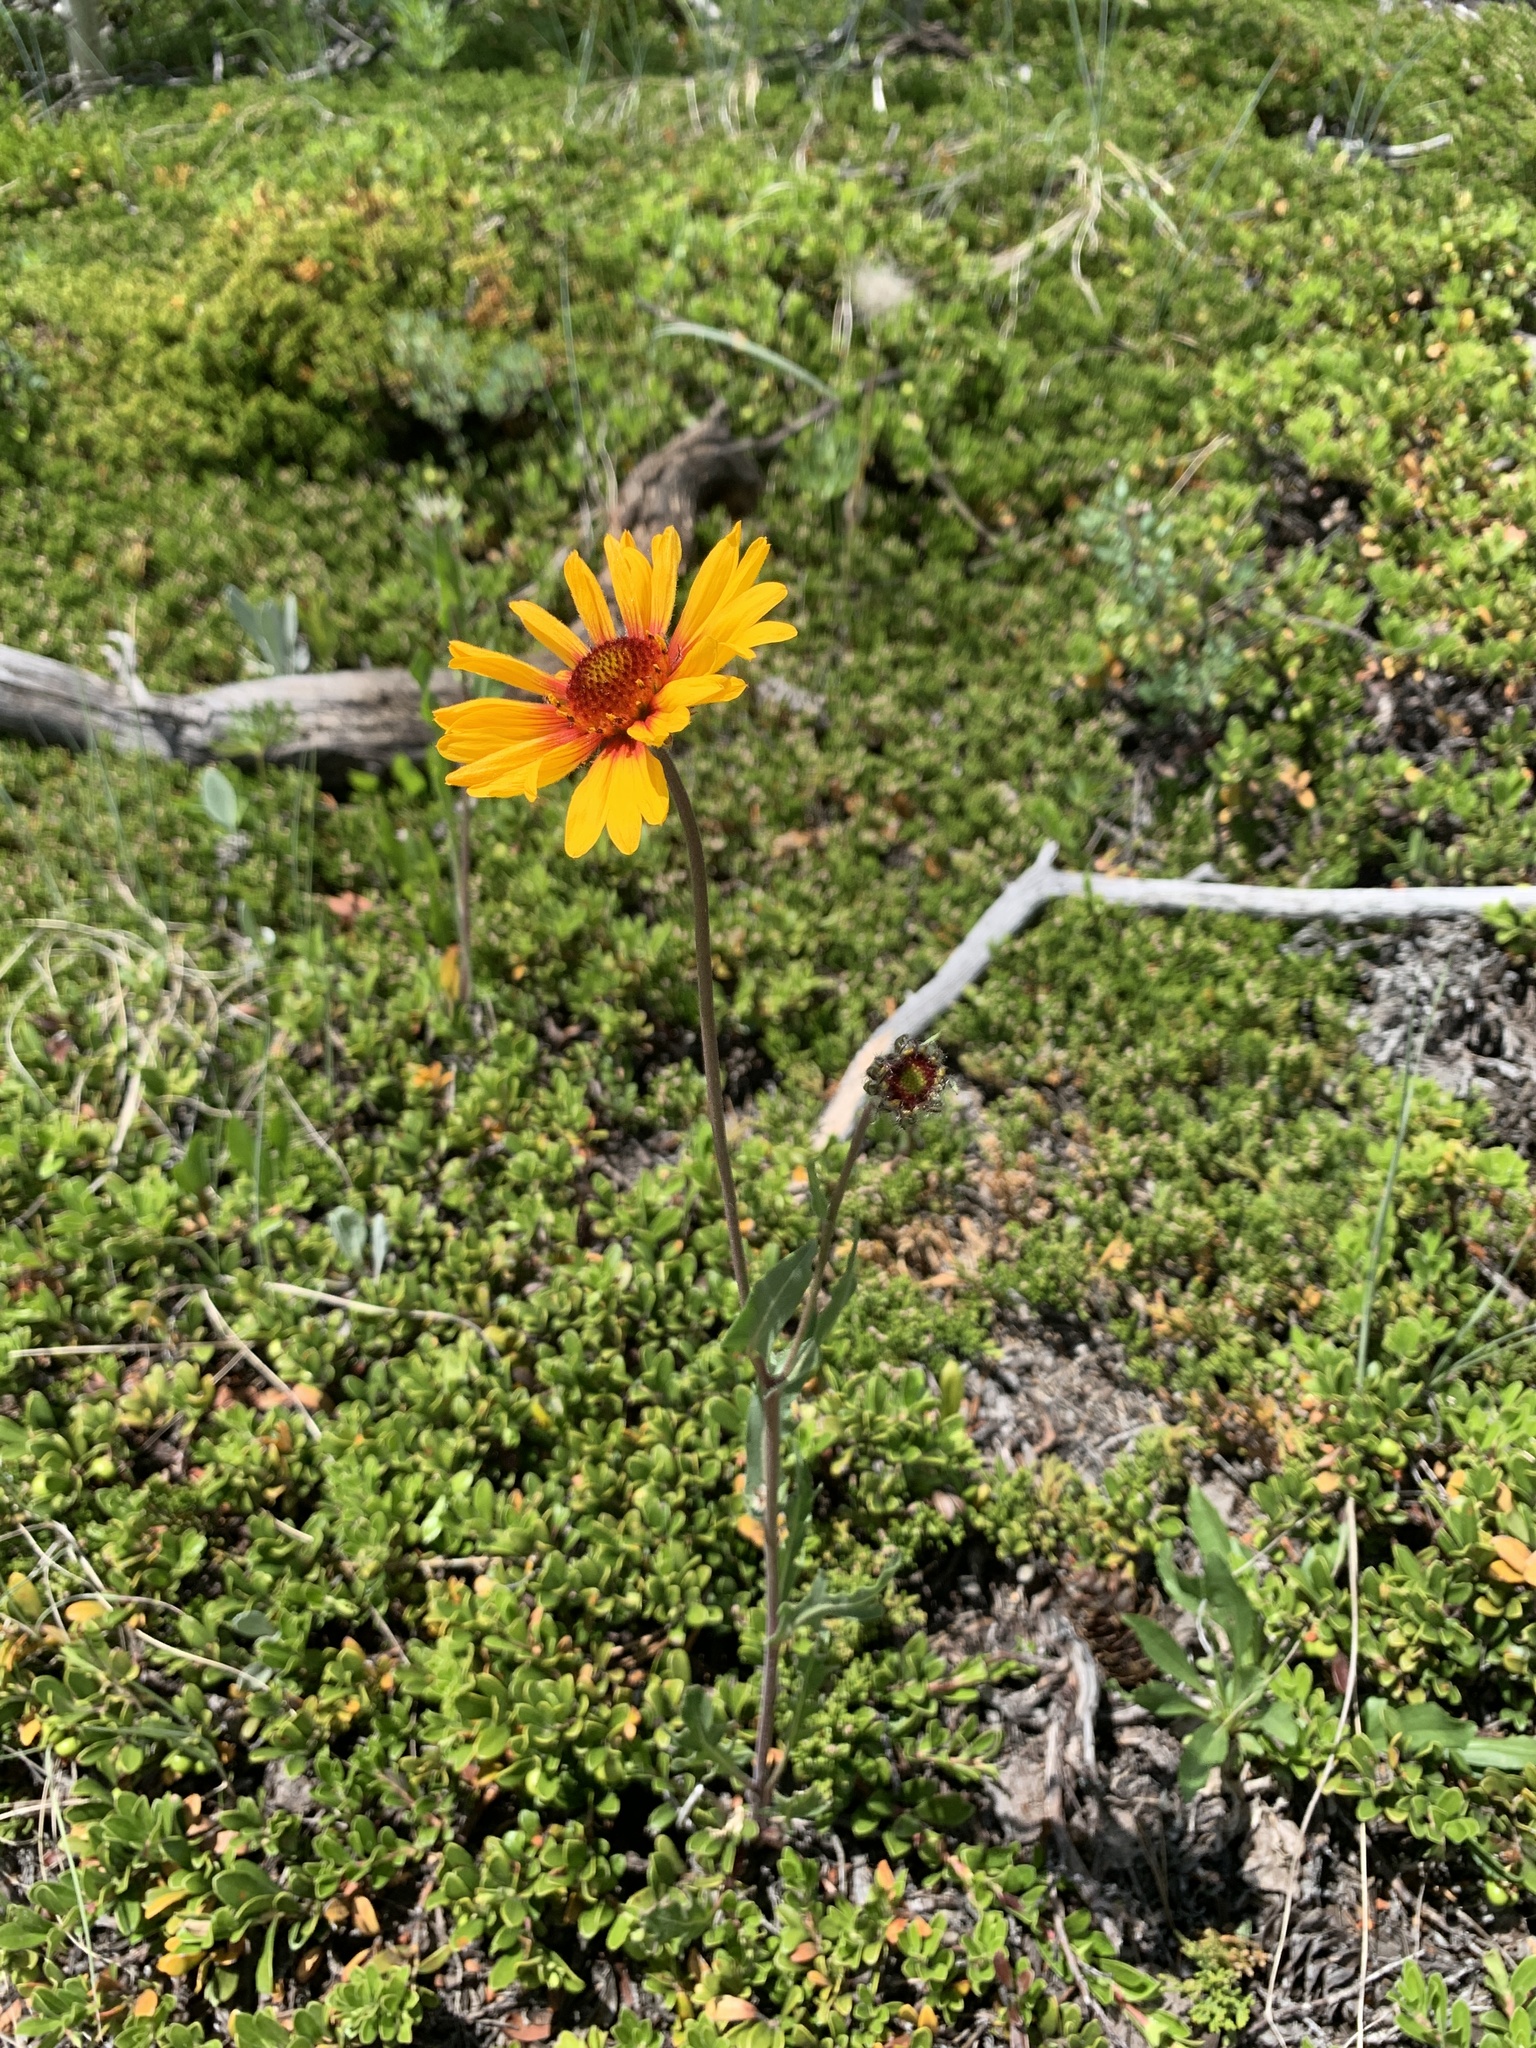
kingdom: Plantae
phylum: Tracheophyta
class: Magnoliopsida
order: Asterales
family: Asteraceae
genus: Gaillardia
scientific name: Gaillardia aristata
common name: Blanket-flower
